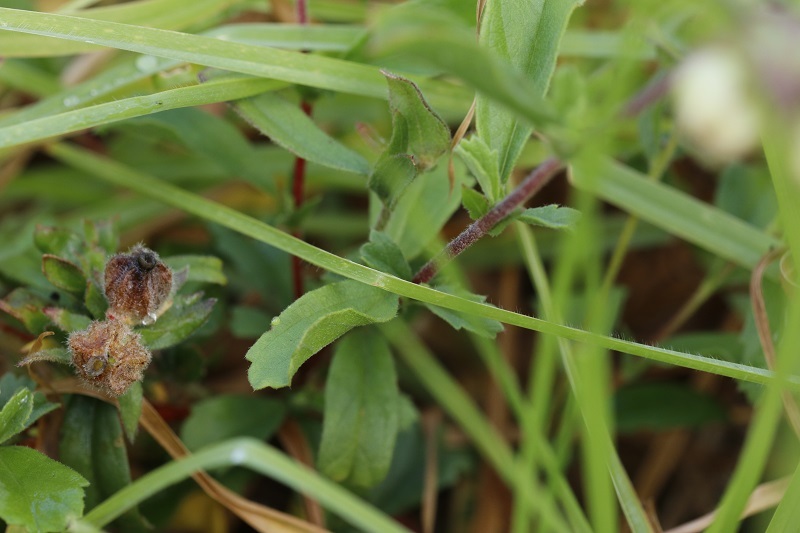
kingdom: Plantae
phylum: Tracheophyta
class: Magnoliopsida
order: Malvales
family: Malvaceae
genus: Hermannia
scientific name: Hermannia hyssopifolia
